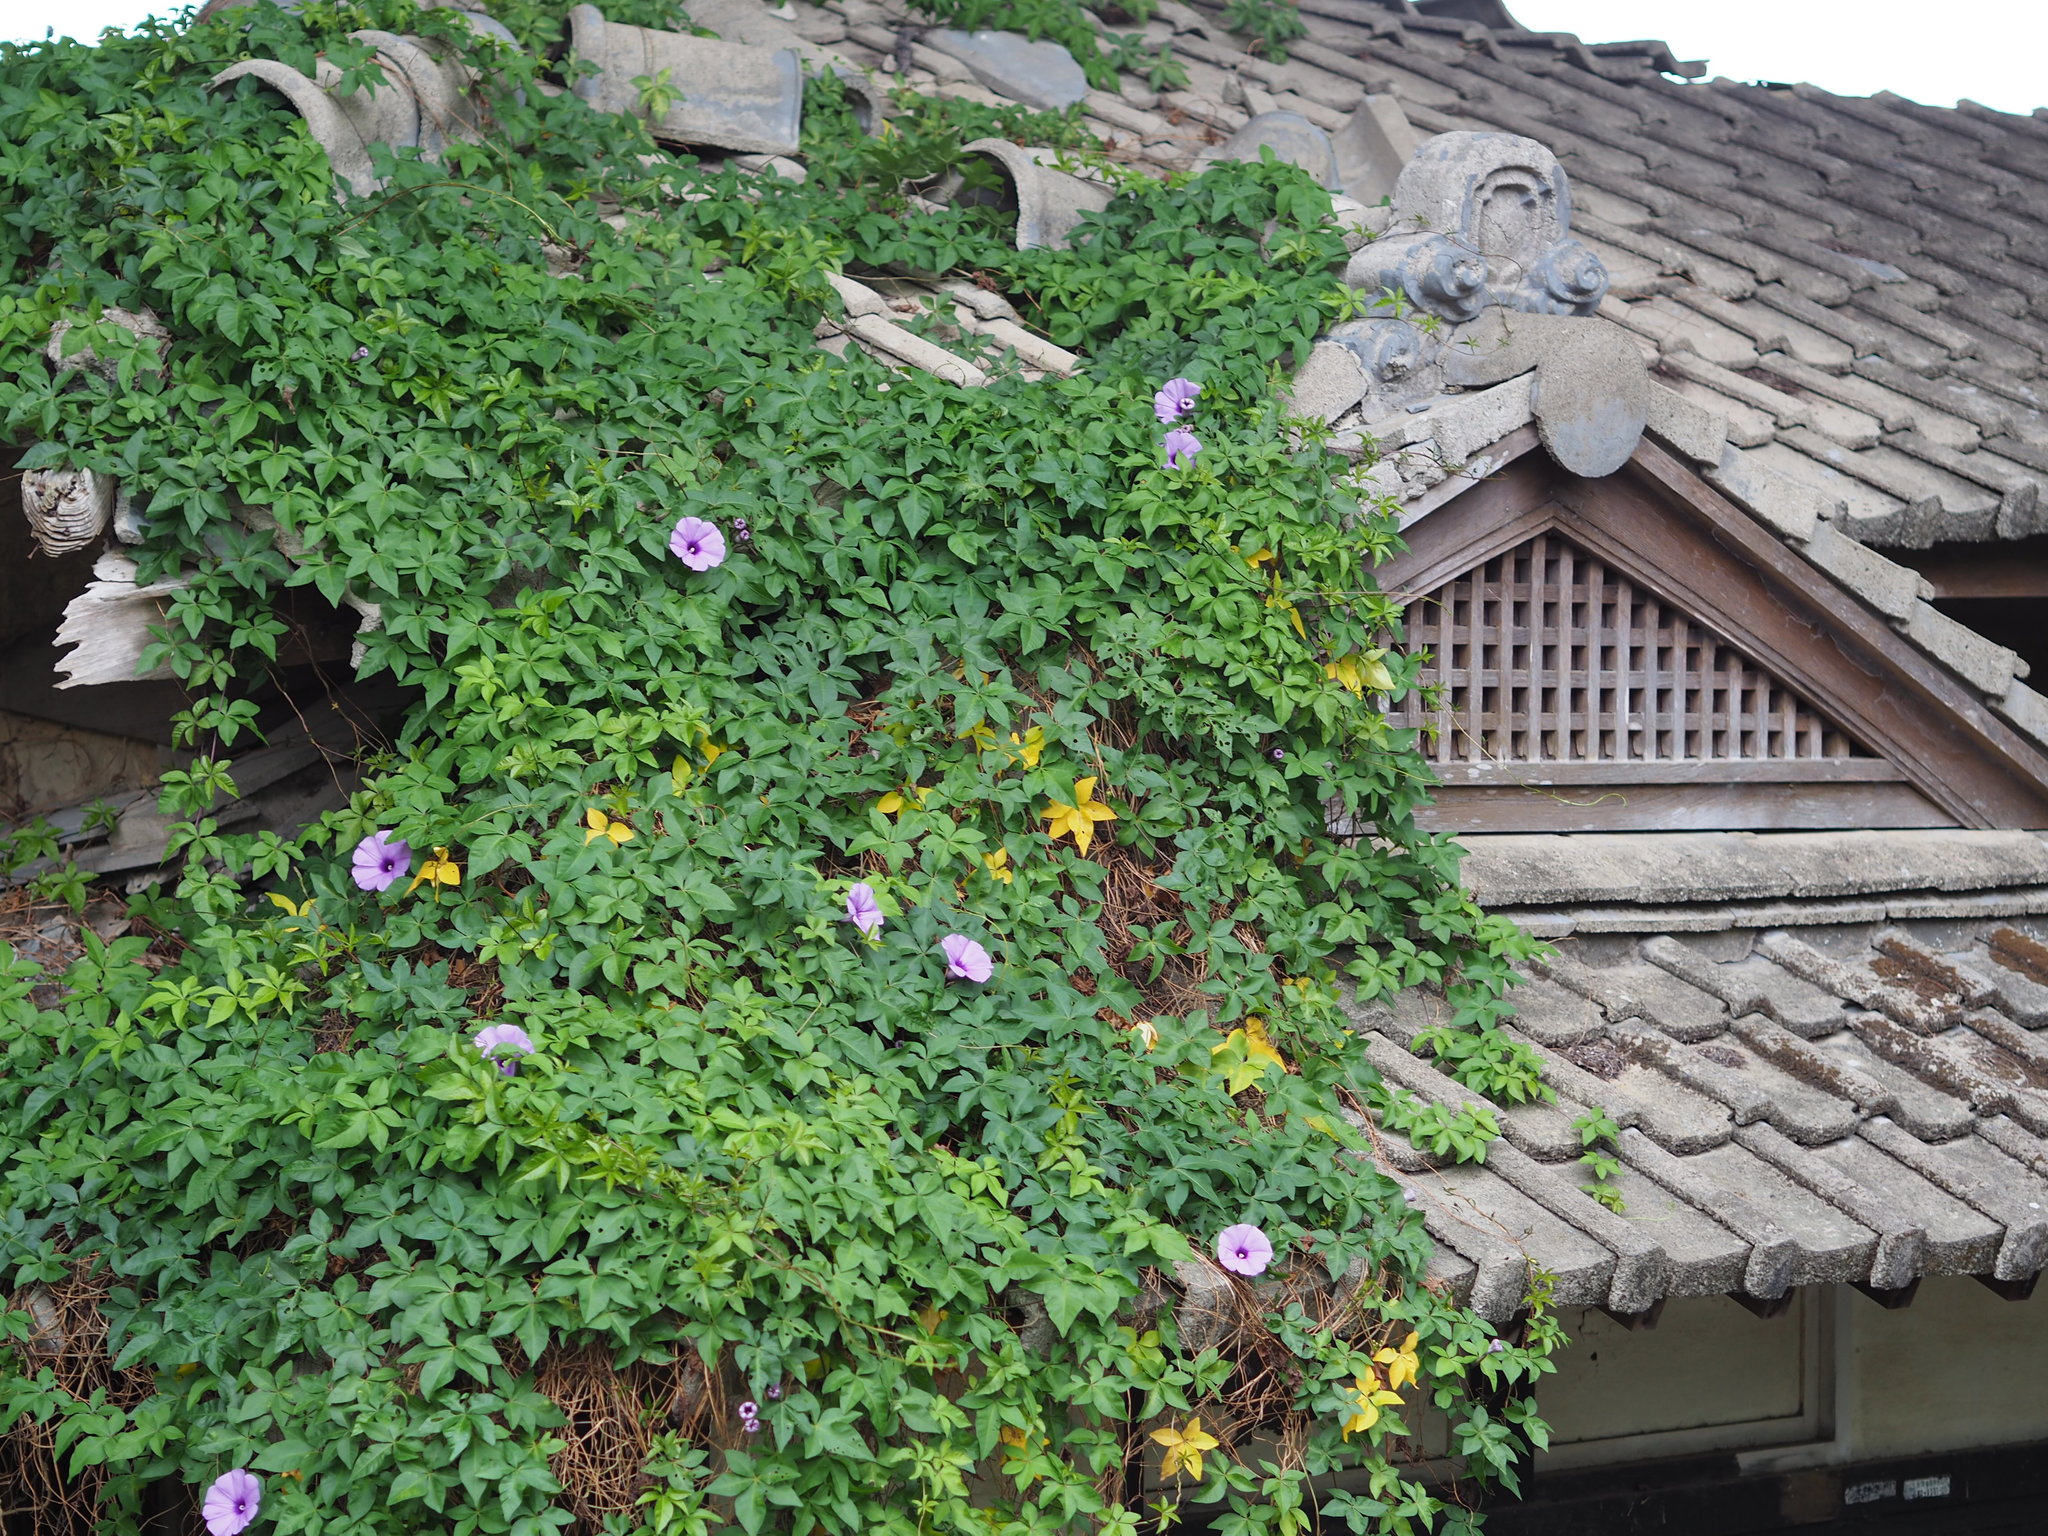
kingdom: Plantae
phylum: Tracheophyta
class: Magnoliopsida
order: Solanales
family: Convolvulaceae
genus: Ipomoea
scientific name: Ipomoea cairica
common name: Mile a minute vine
